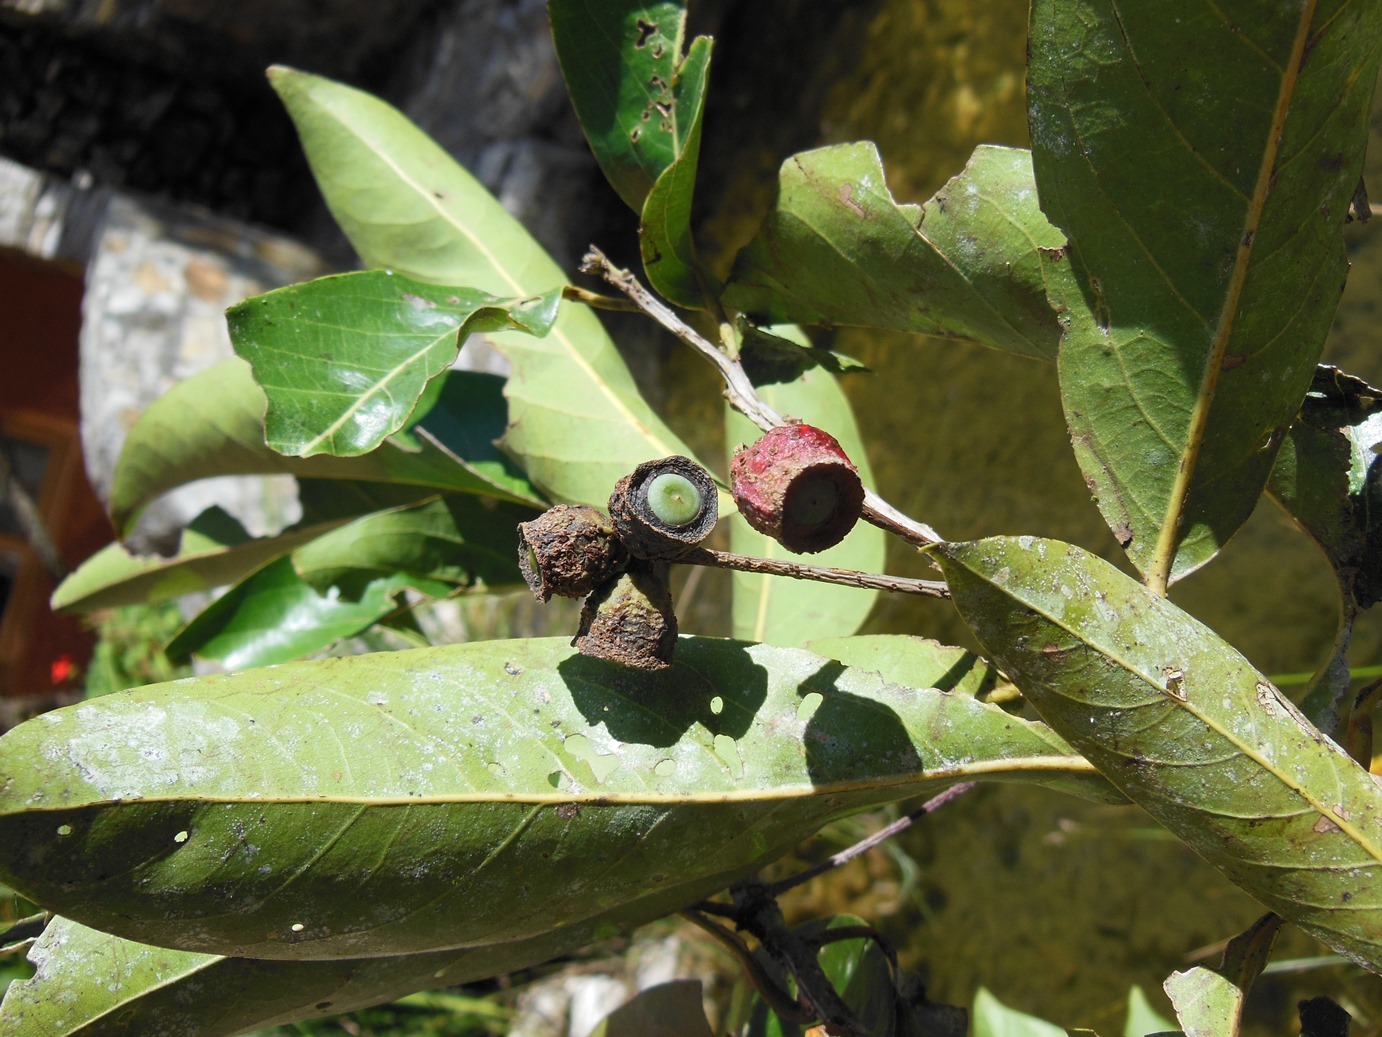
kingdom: Plantae
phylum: Tracheophyta
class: Magnoliopsida
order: Laurales
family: Lauraceae
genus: Licaria
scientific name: Licaria excelsa
